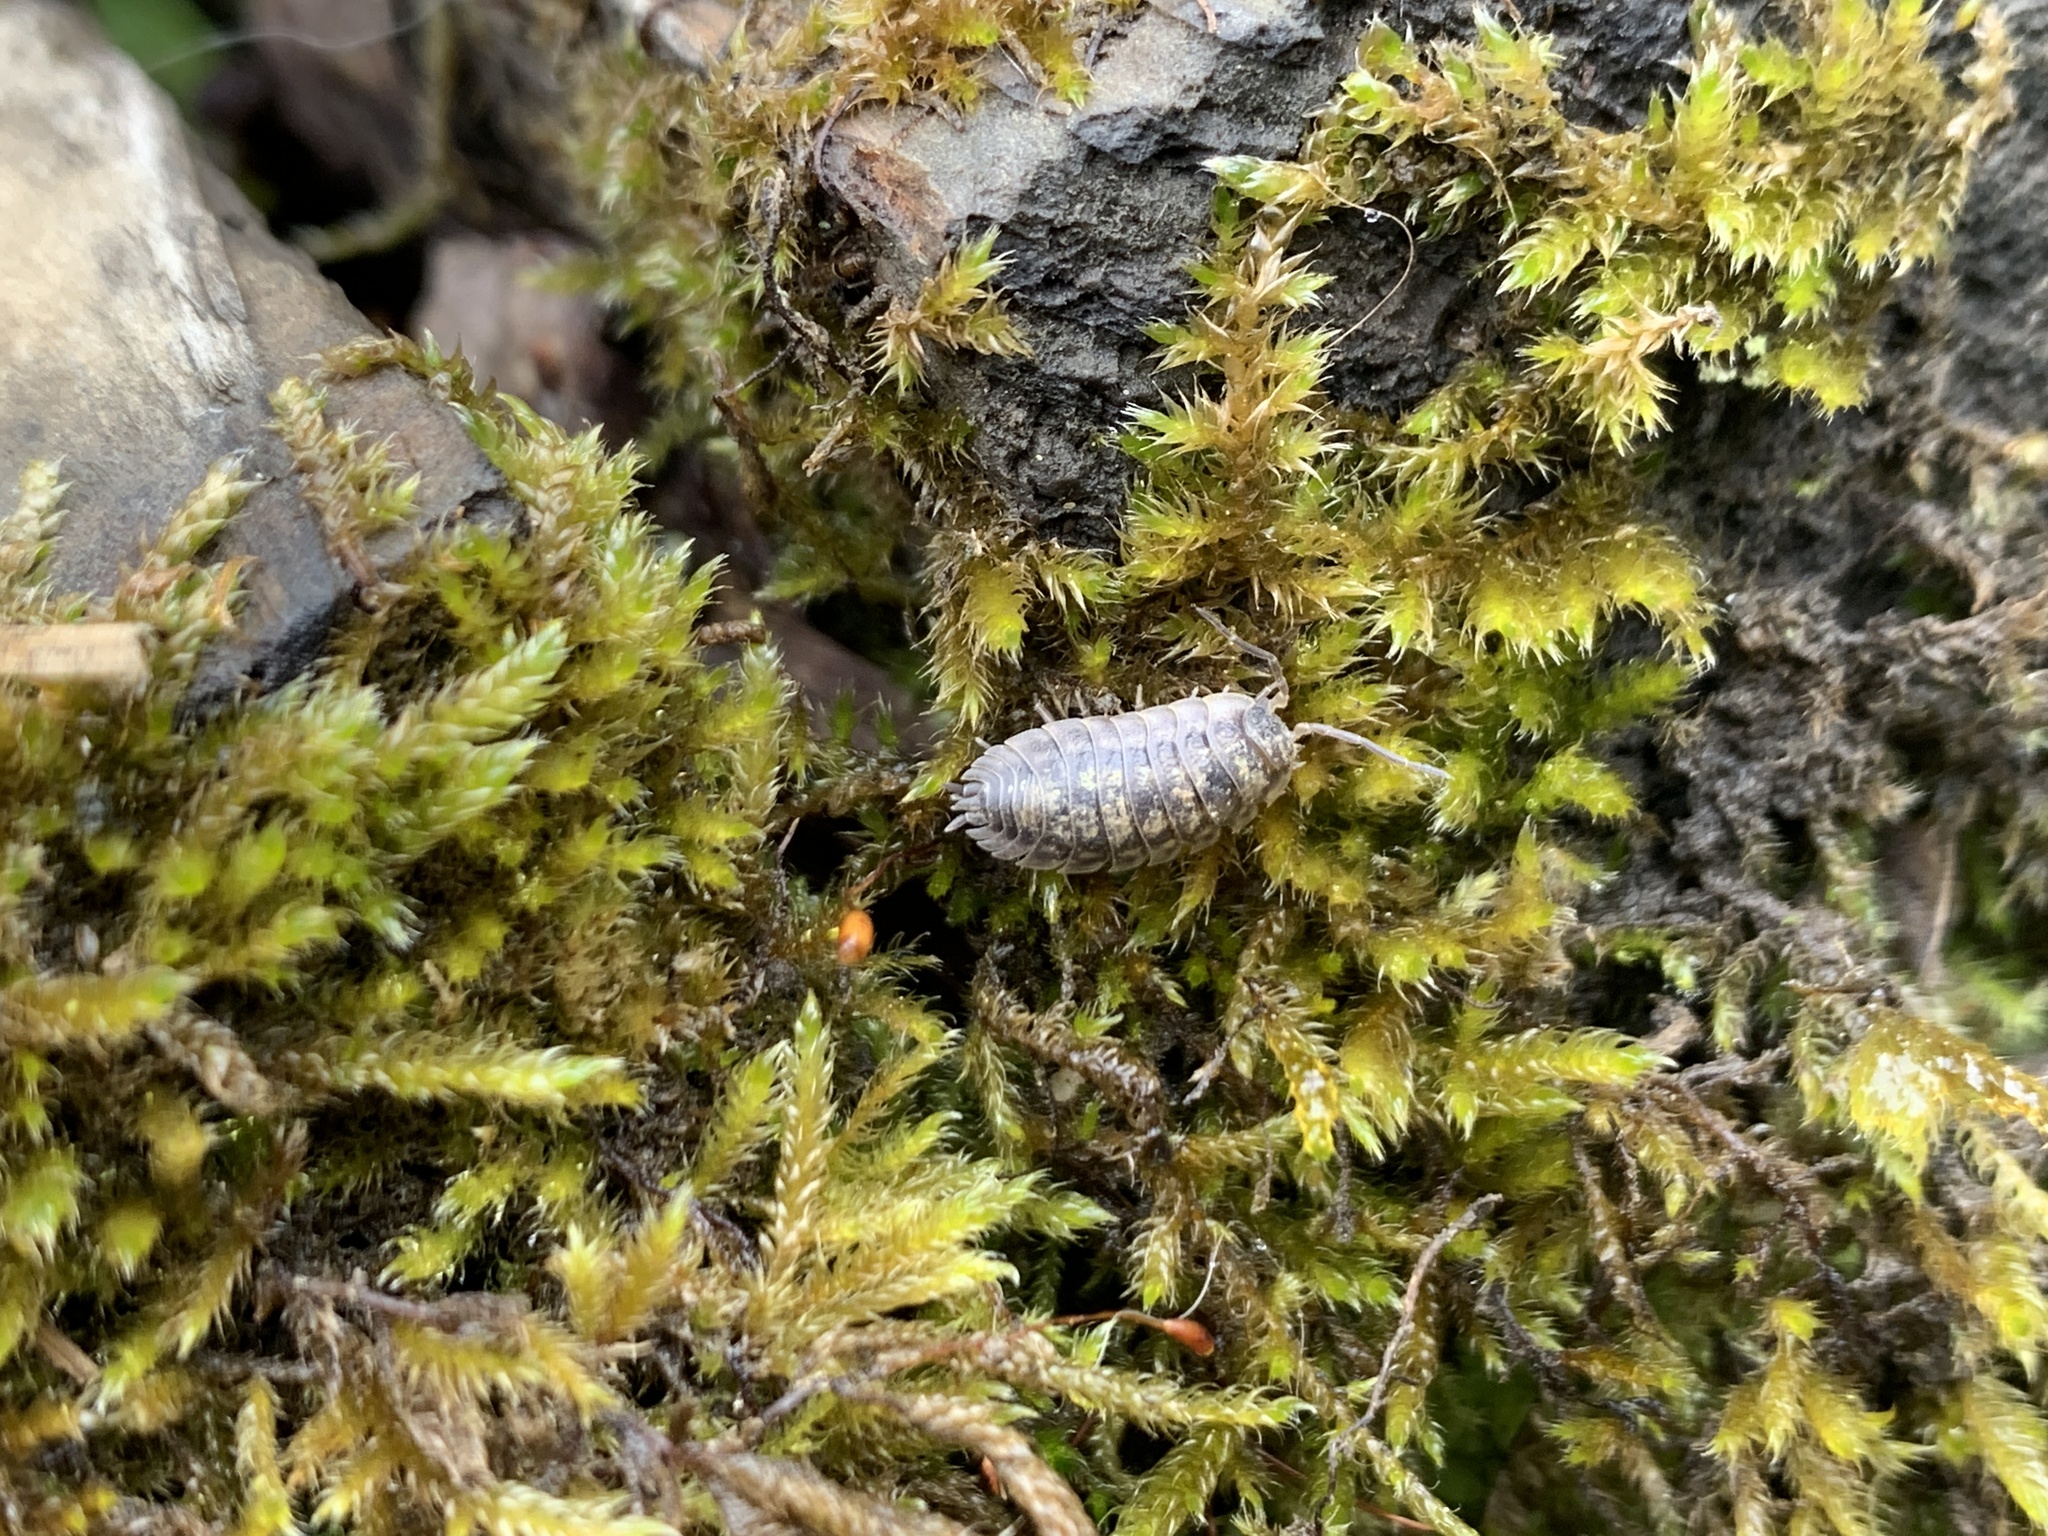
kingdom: Animalia
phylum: Arthropoda
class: Malacostraca
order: Isopoda
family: Oniscidae
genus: Oniscus
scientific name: Oniscus asellus
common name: Common shiny woodlouse
